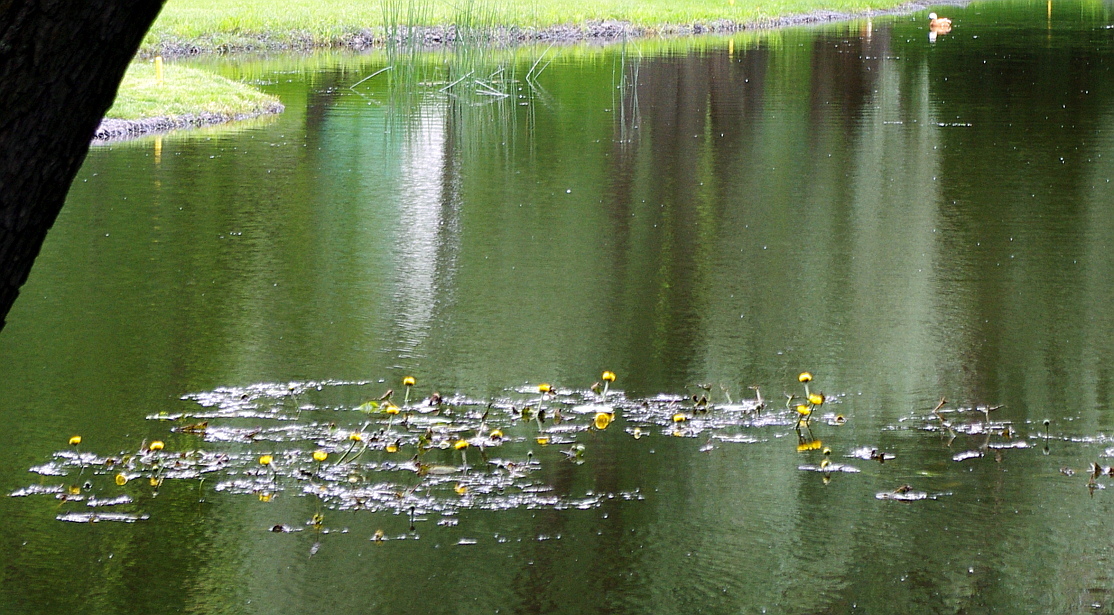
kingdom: Plantae
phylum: Tracheophyta
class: Magnoliopsida
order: Nymphaeales
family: Nymphaeaceae
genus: Nuphar
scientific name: Nuphar lutea
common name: Yellow water-lily
